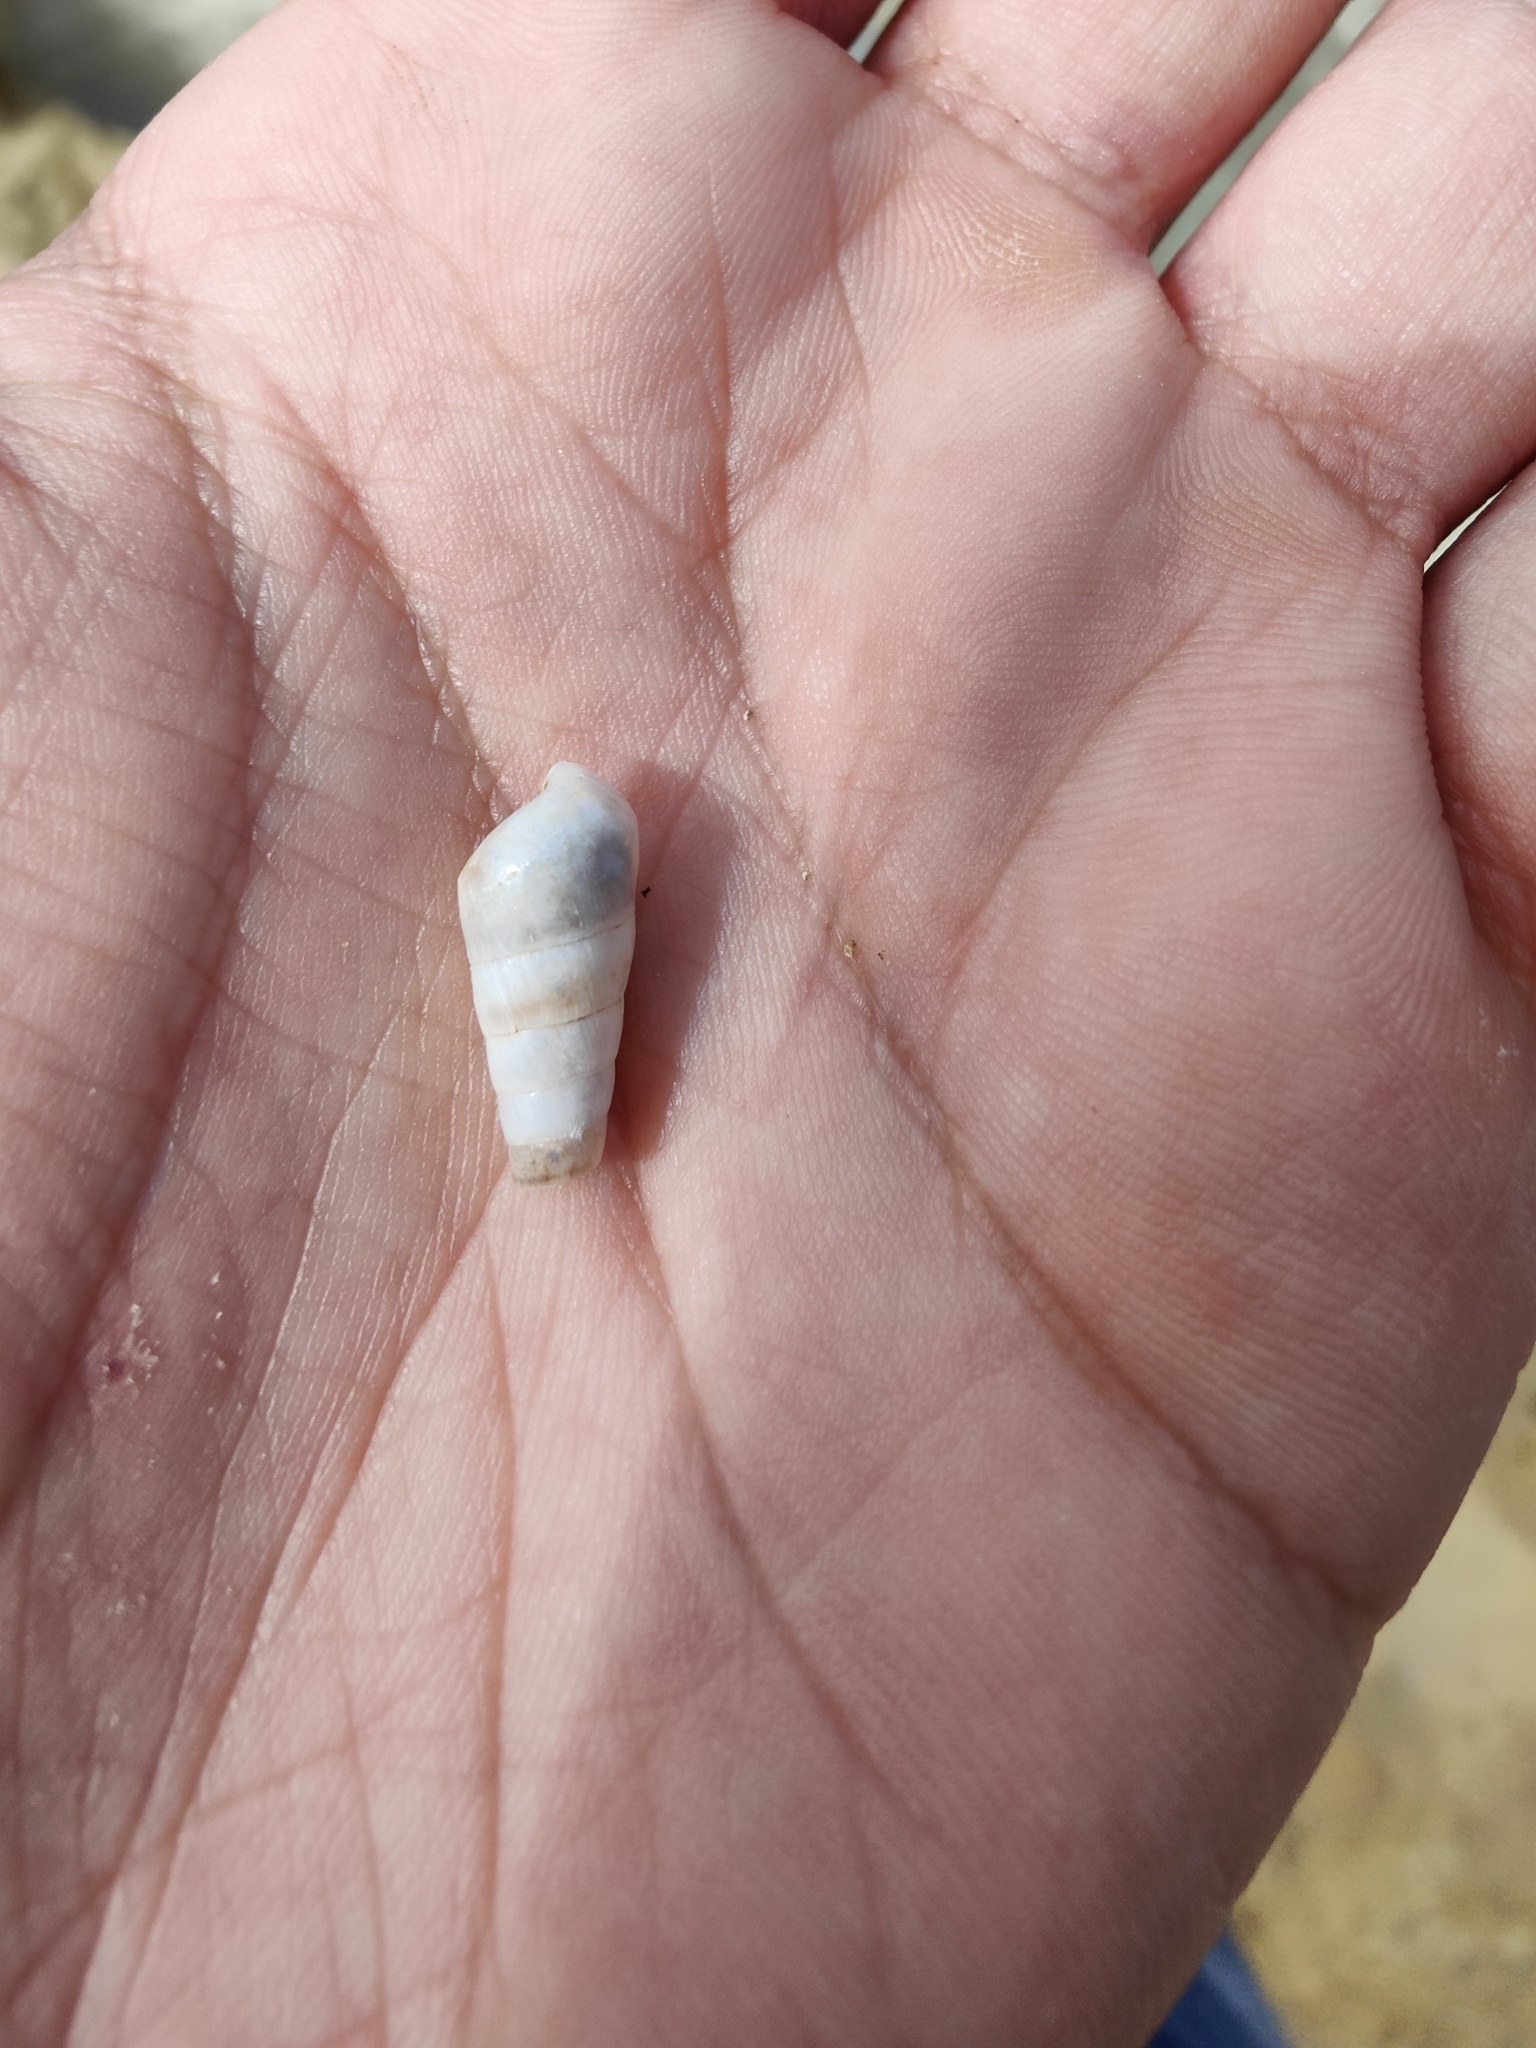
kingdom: Animalia
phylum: Mollusca
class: Gastropoda
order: Stylommatophora
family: Achatinidae
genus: Rumina
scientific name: Rumina decollata
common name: Decollate snail
